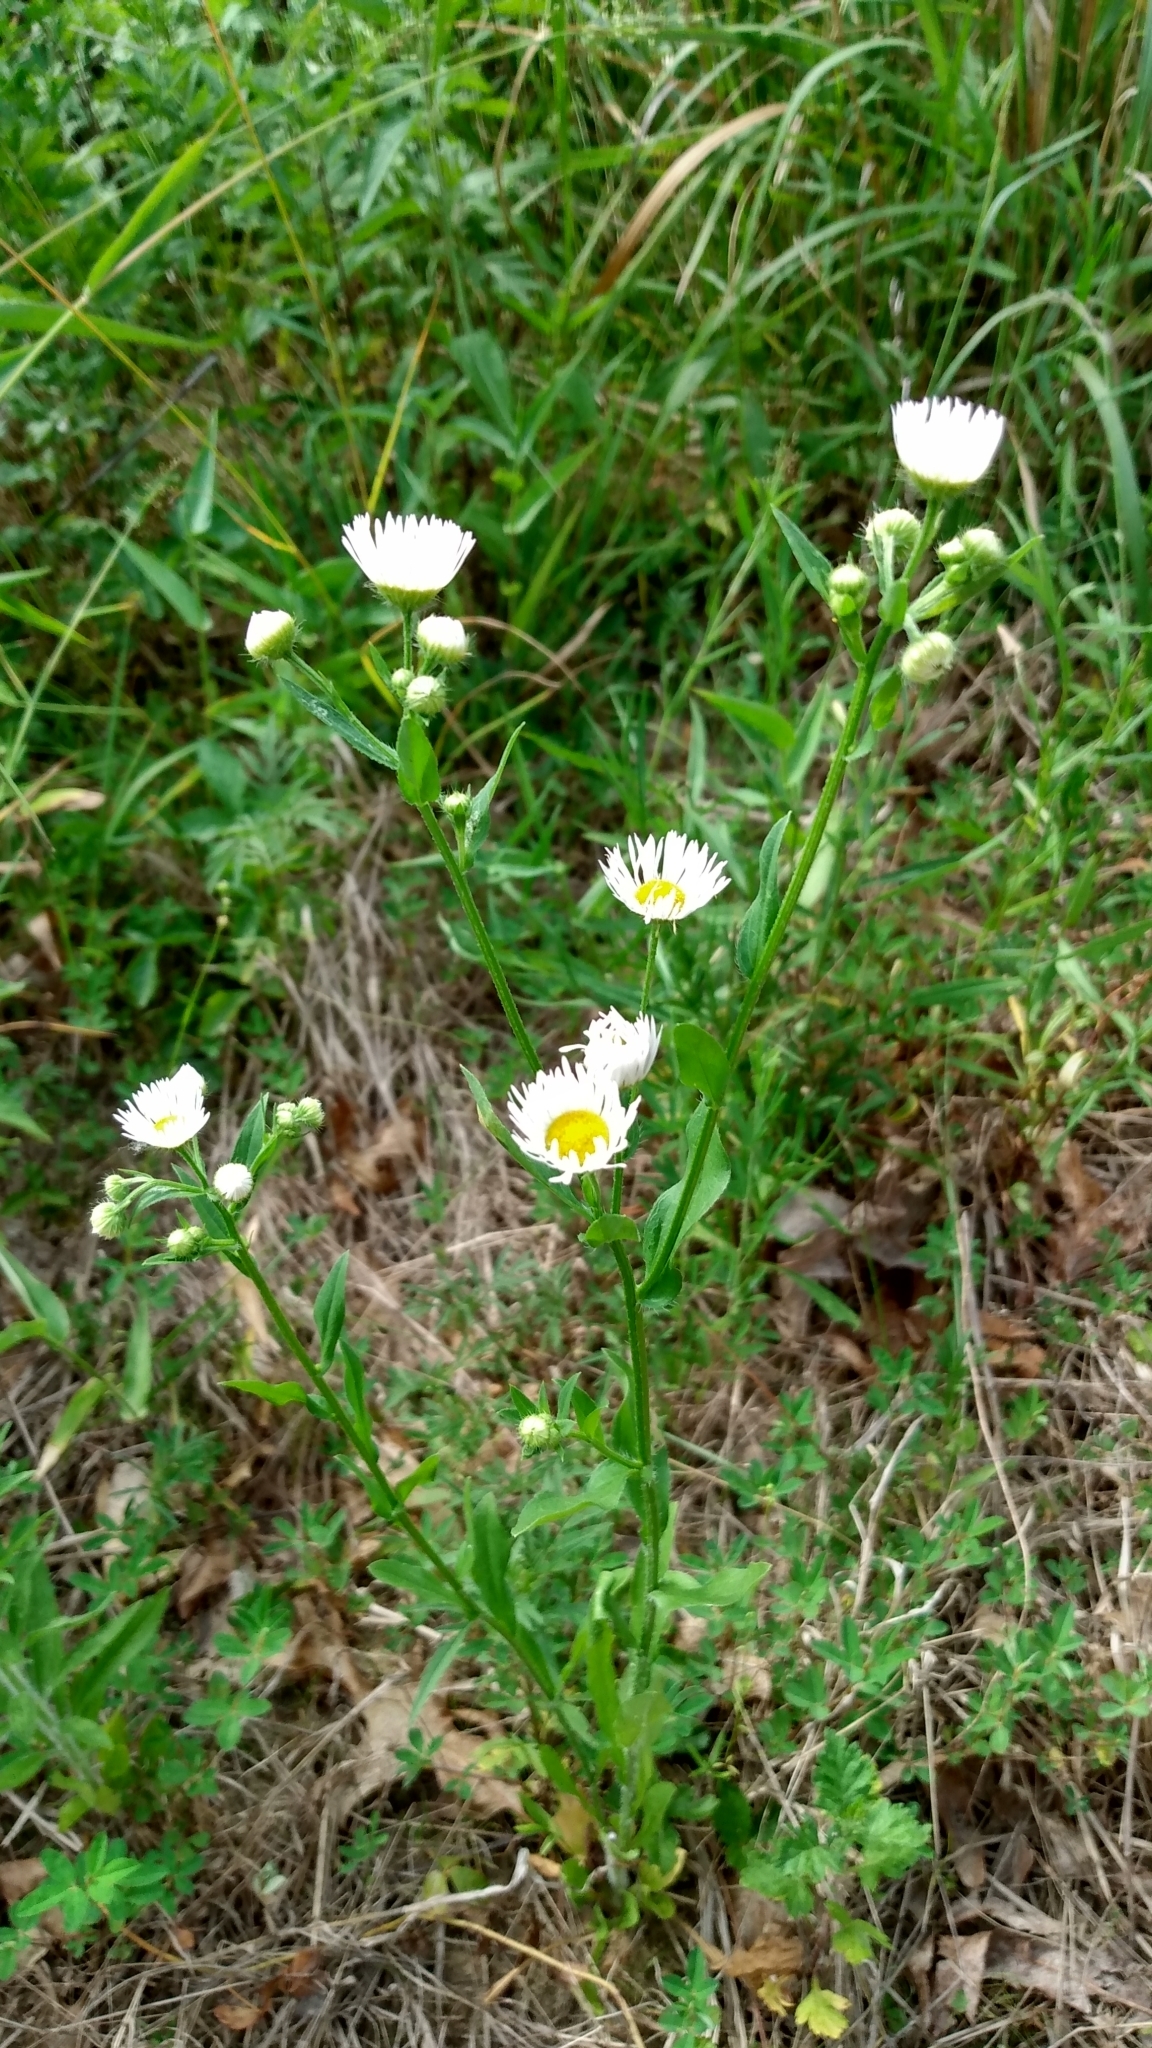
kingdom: Plantae
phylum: Tracheophyta
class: Magnoliopsida
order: Asterales
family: Asteraceae
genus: Erigeron
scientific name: Erigeron strigosus
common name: Common eastern fleabane
